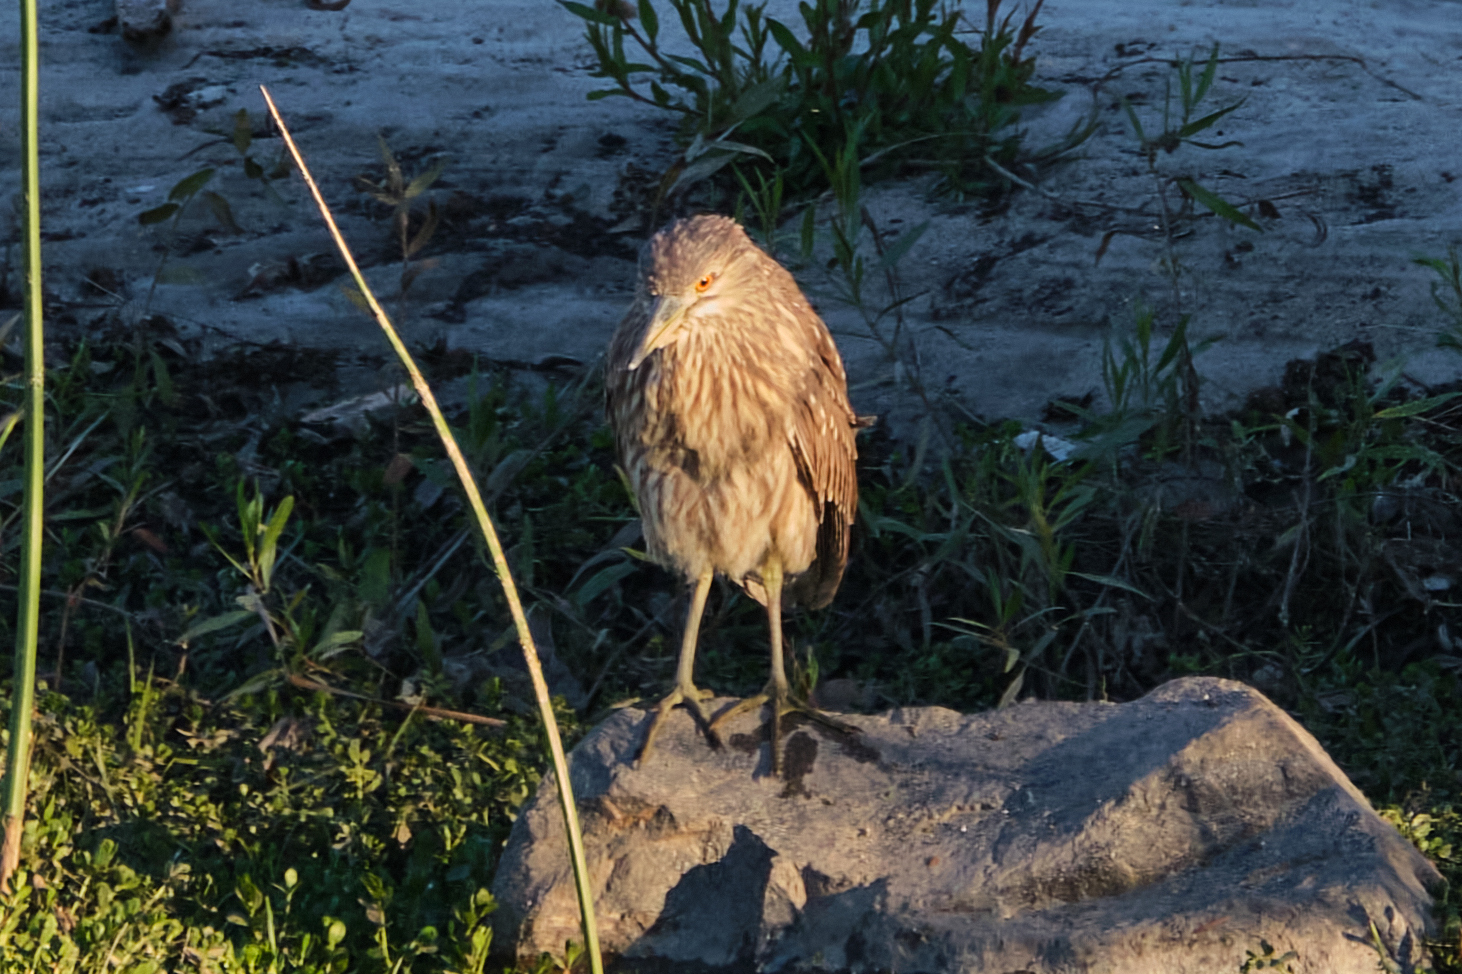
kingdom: Animalia
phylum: Chordata
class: Aves
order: Pelecaniformes
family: Ardeidae
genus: Nycticorax
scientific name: Nycticorax nycticorax
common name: Black-crowned night heron
